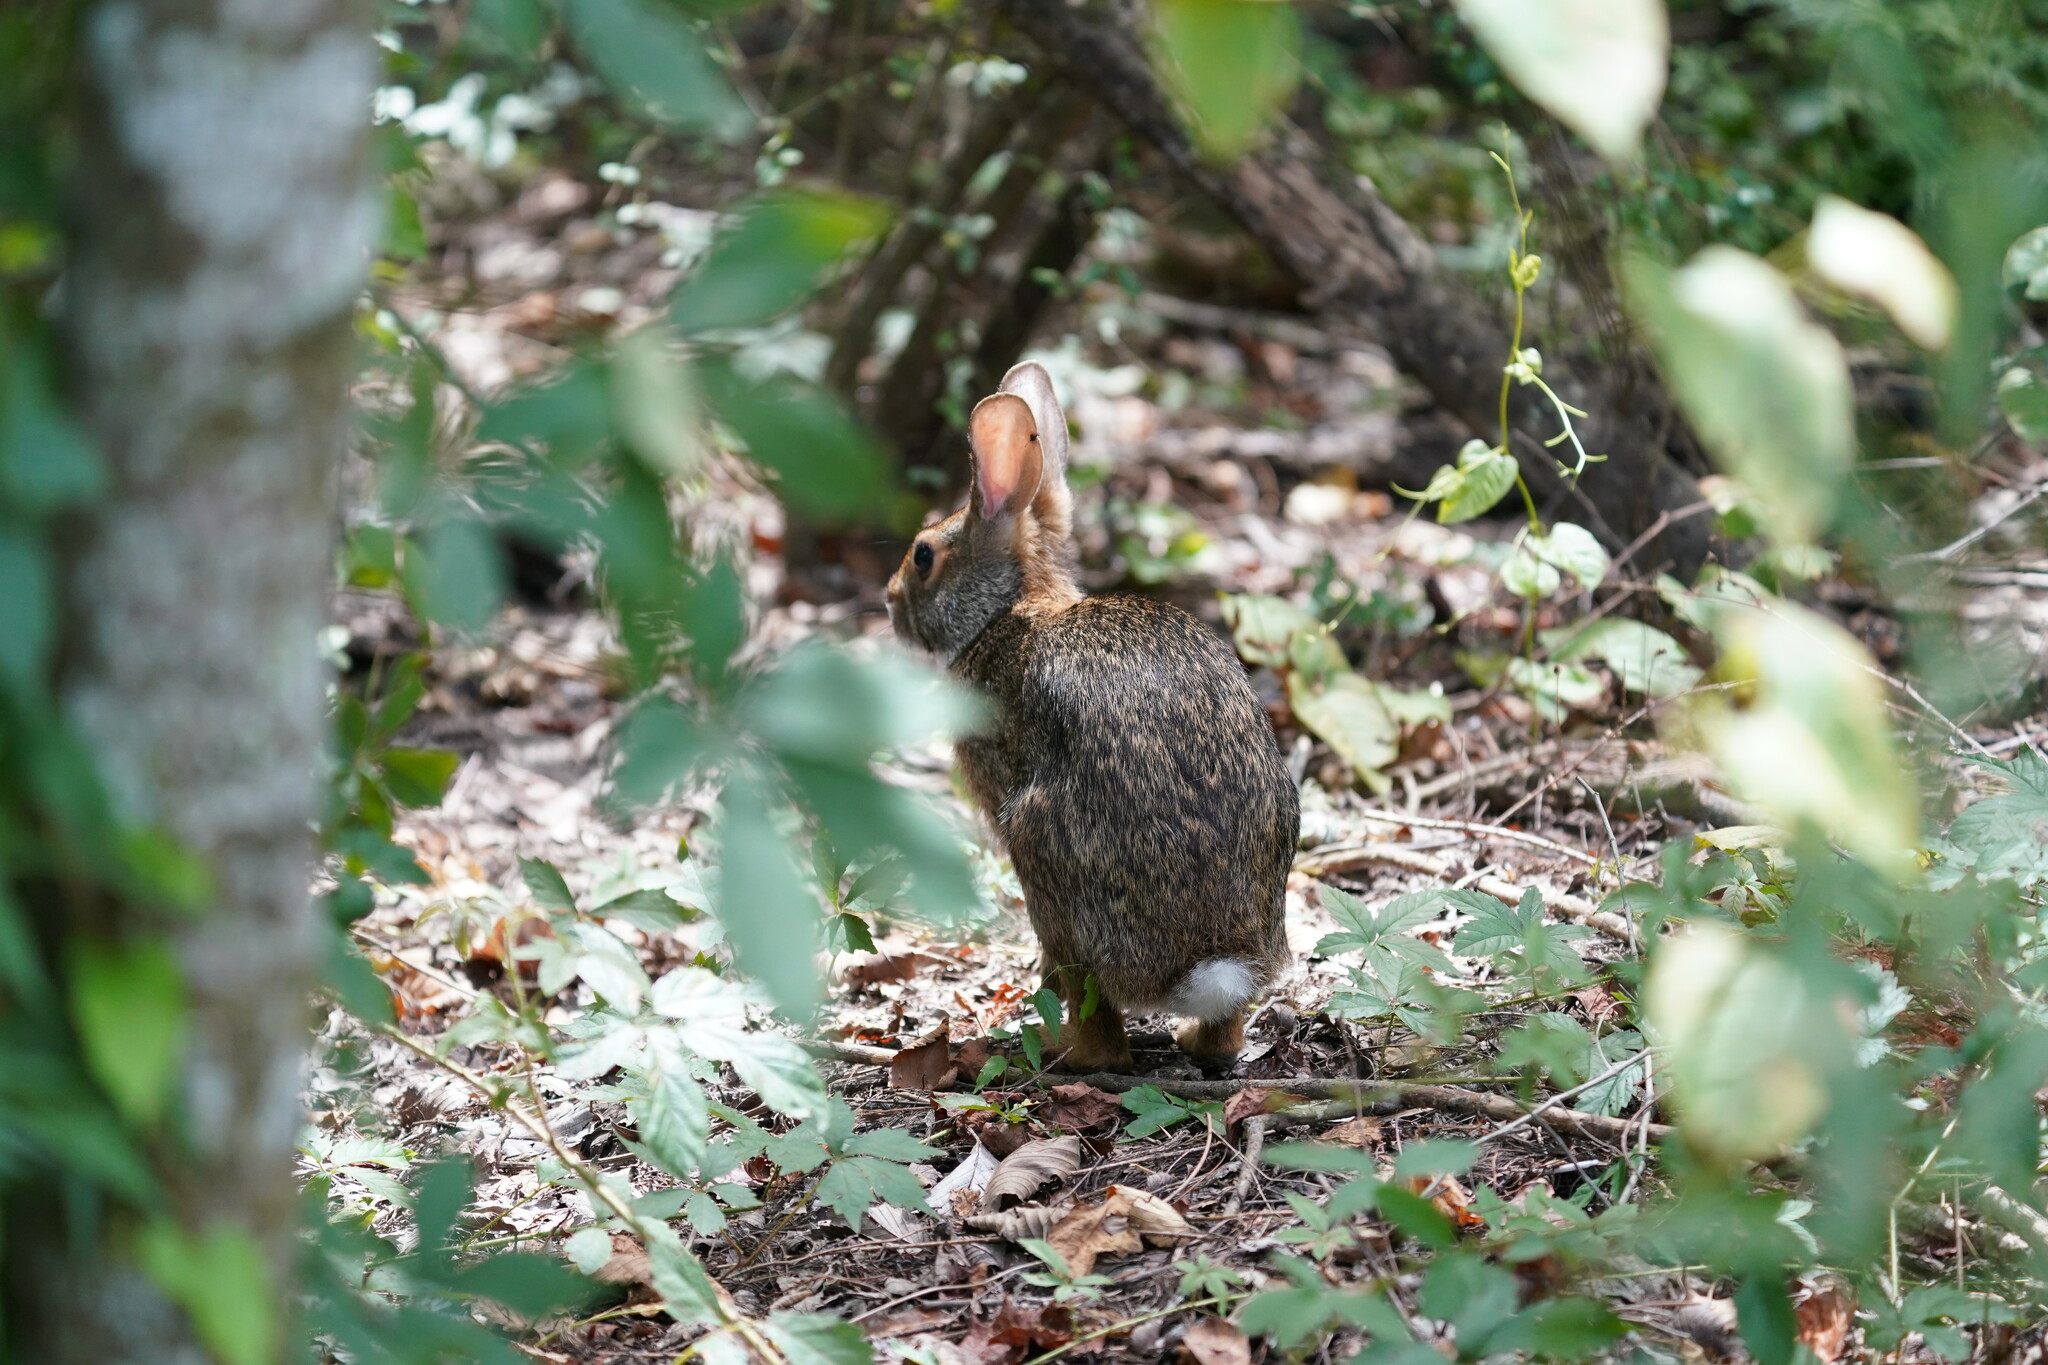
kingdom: Animalia
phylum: Chordata
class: Mammalia
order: Lagomorpha
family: Leporidae
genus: Sylvilagus
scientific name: Sylvilagus aquaticus
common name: Swamp rabbit
